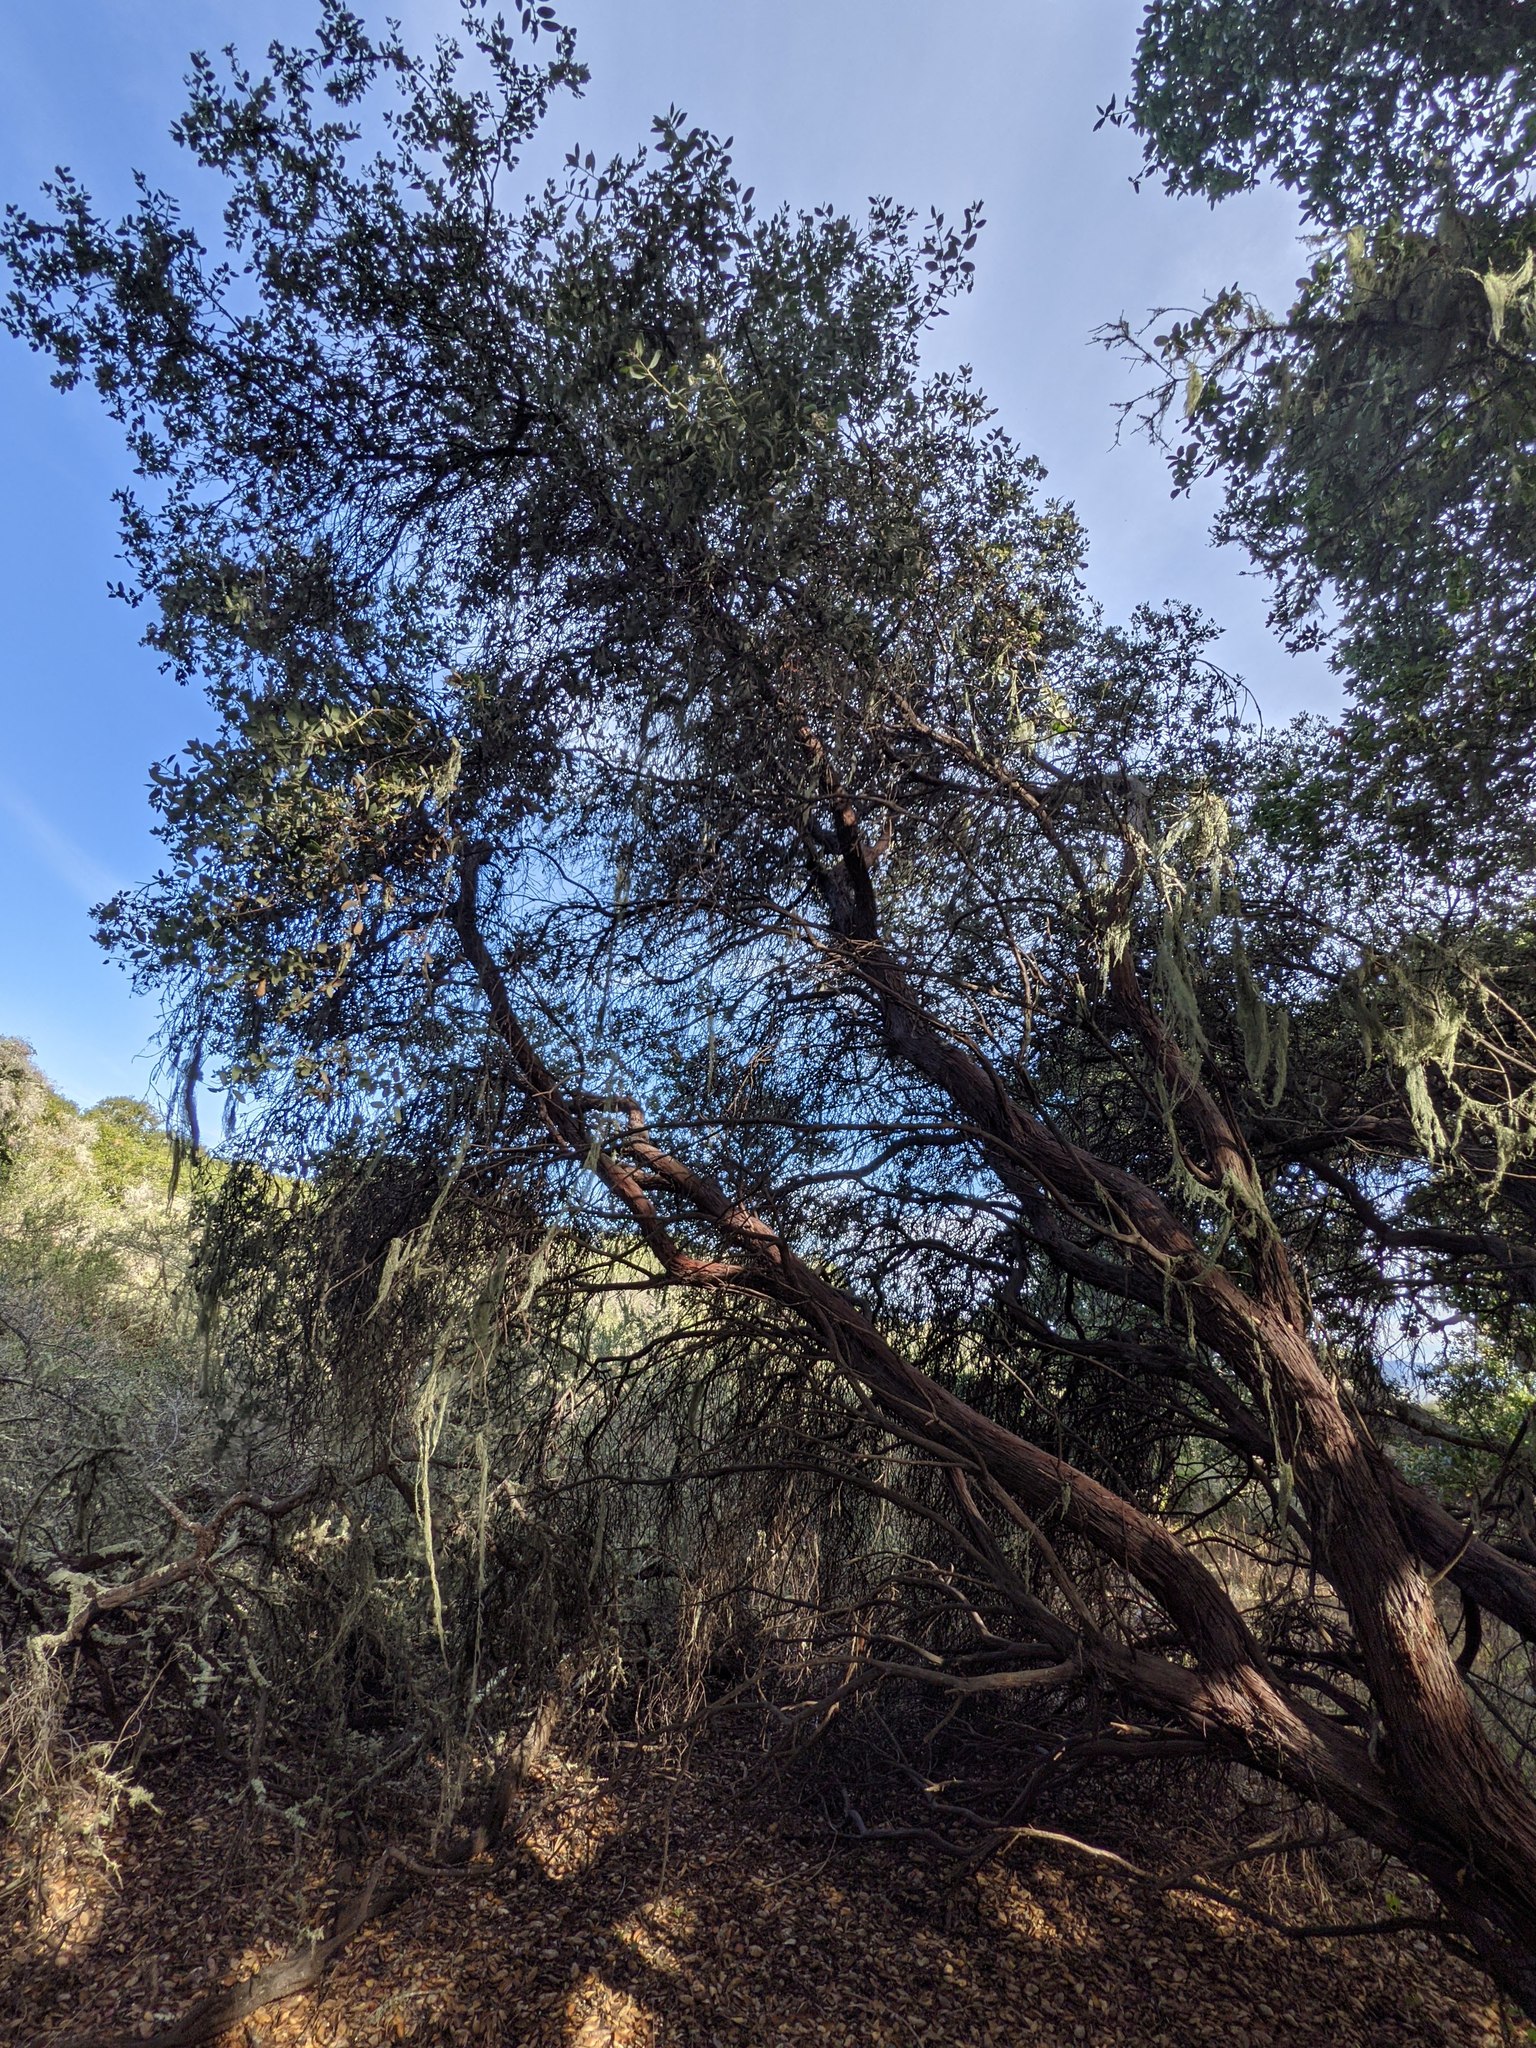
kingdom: Plantae
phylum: Tracheophyta
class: Magnoliopsida
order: Ericales
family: Ericaceae
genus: Arctostaphylos
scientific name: Arctostaphylos morroensis
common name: Morro manzanita
